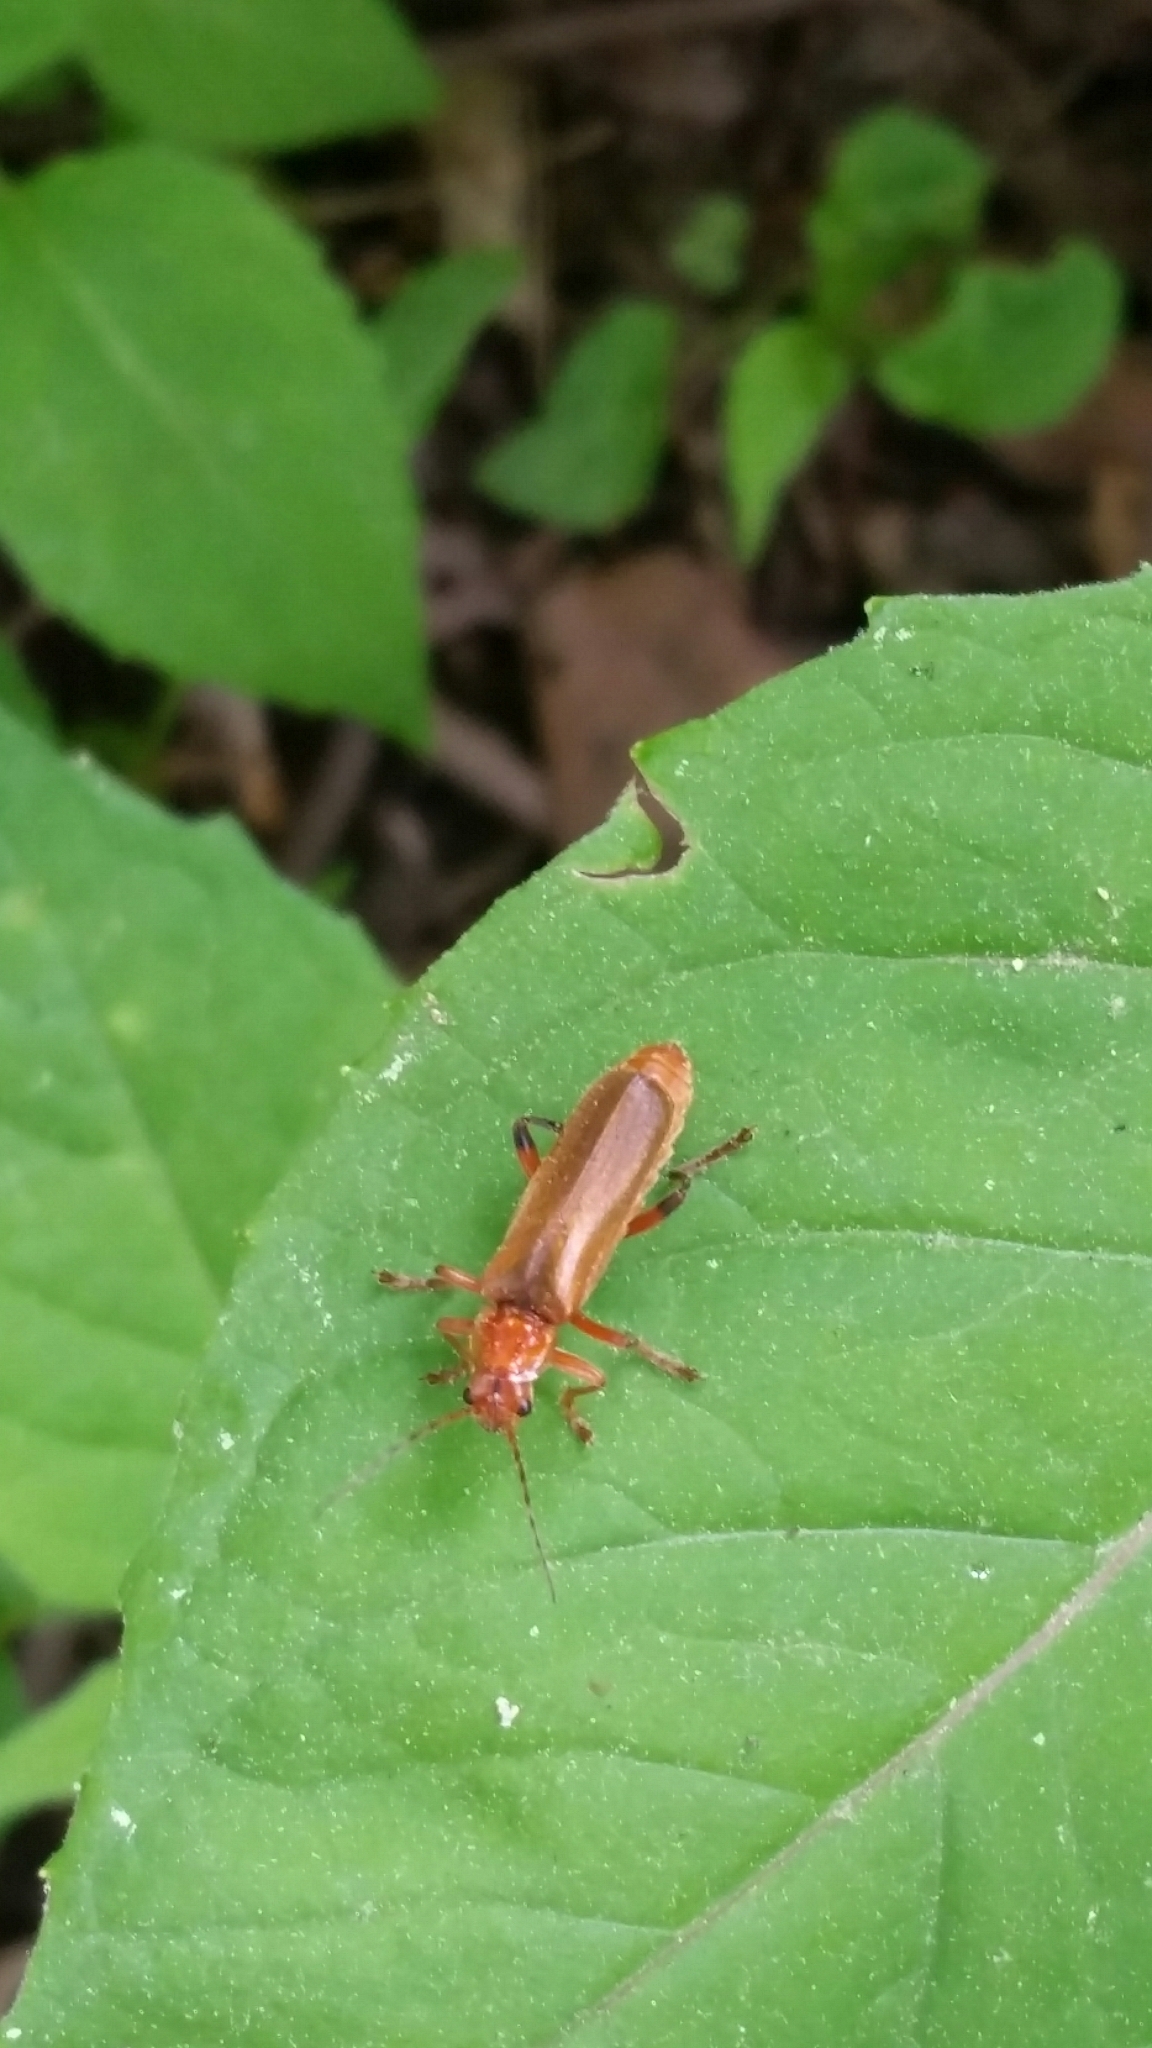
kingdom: Animalia
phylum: Arthropoda
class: Insecta
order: Coleoptera
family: Cantharidae
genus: Cantharis
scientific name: Cantharis livida
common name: Livid soldier beetle
